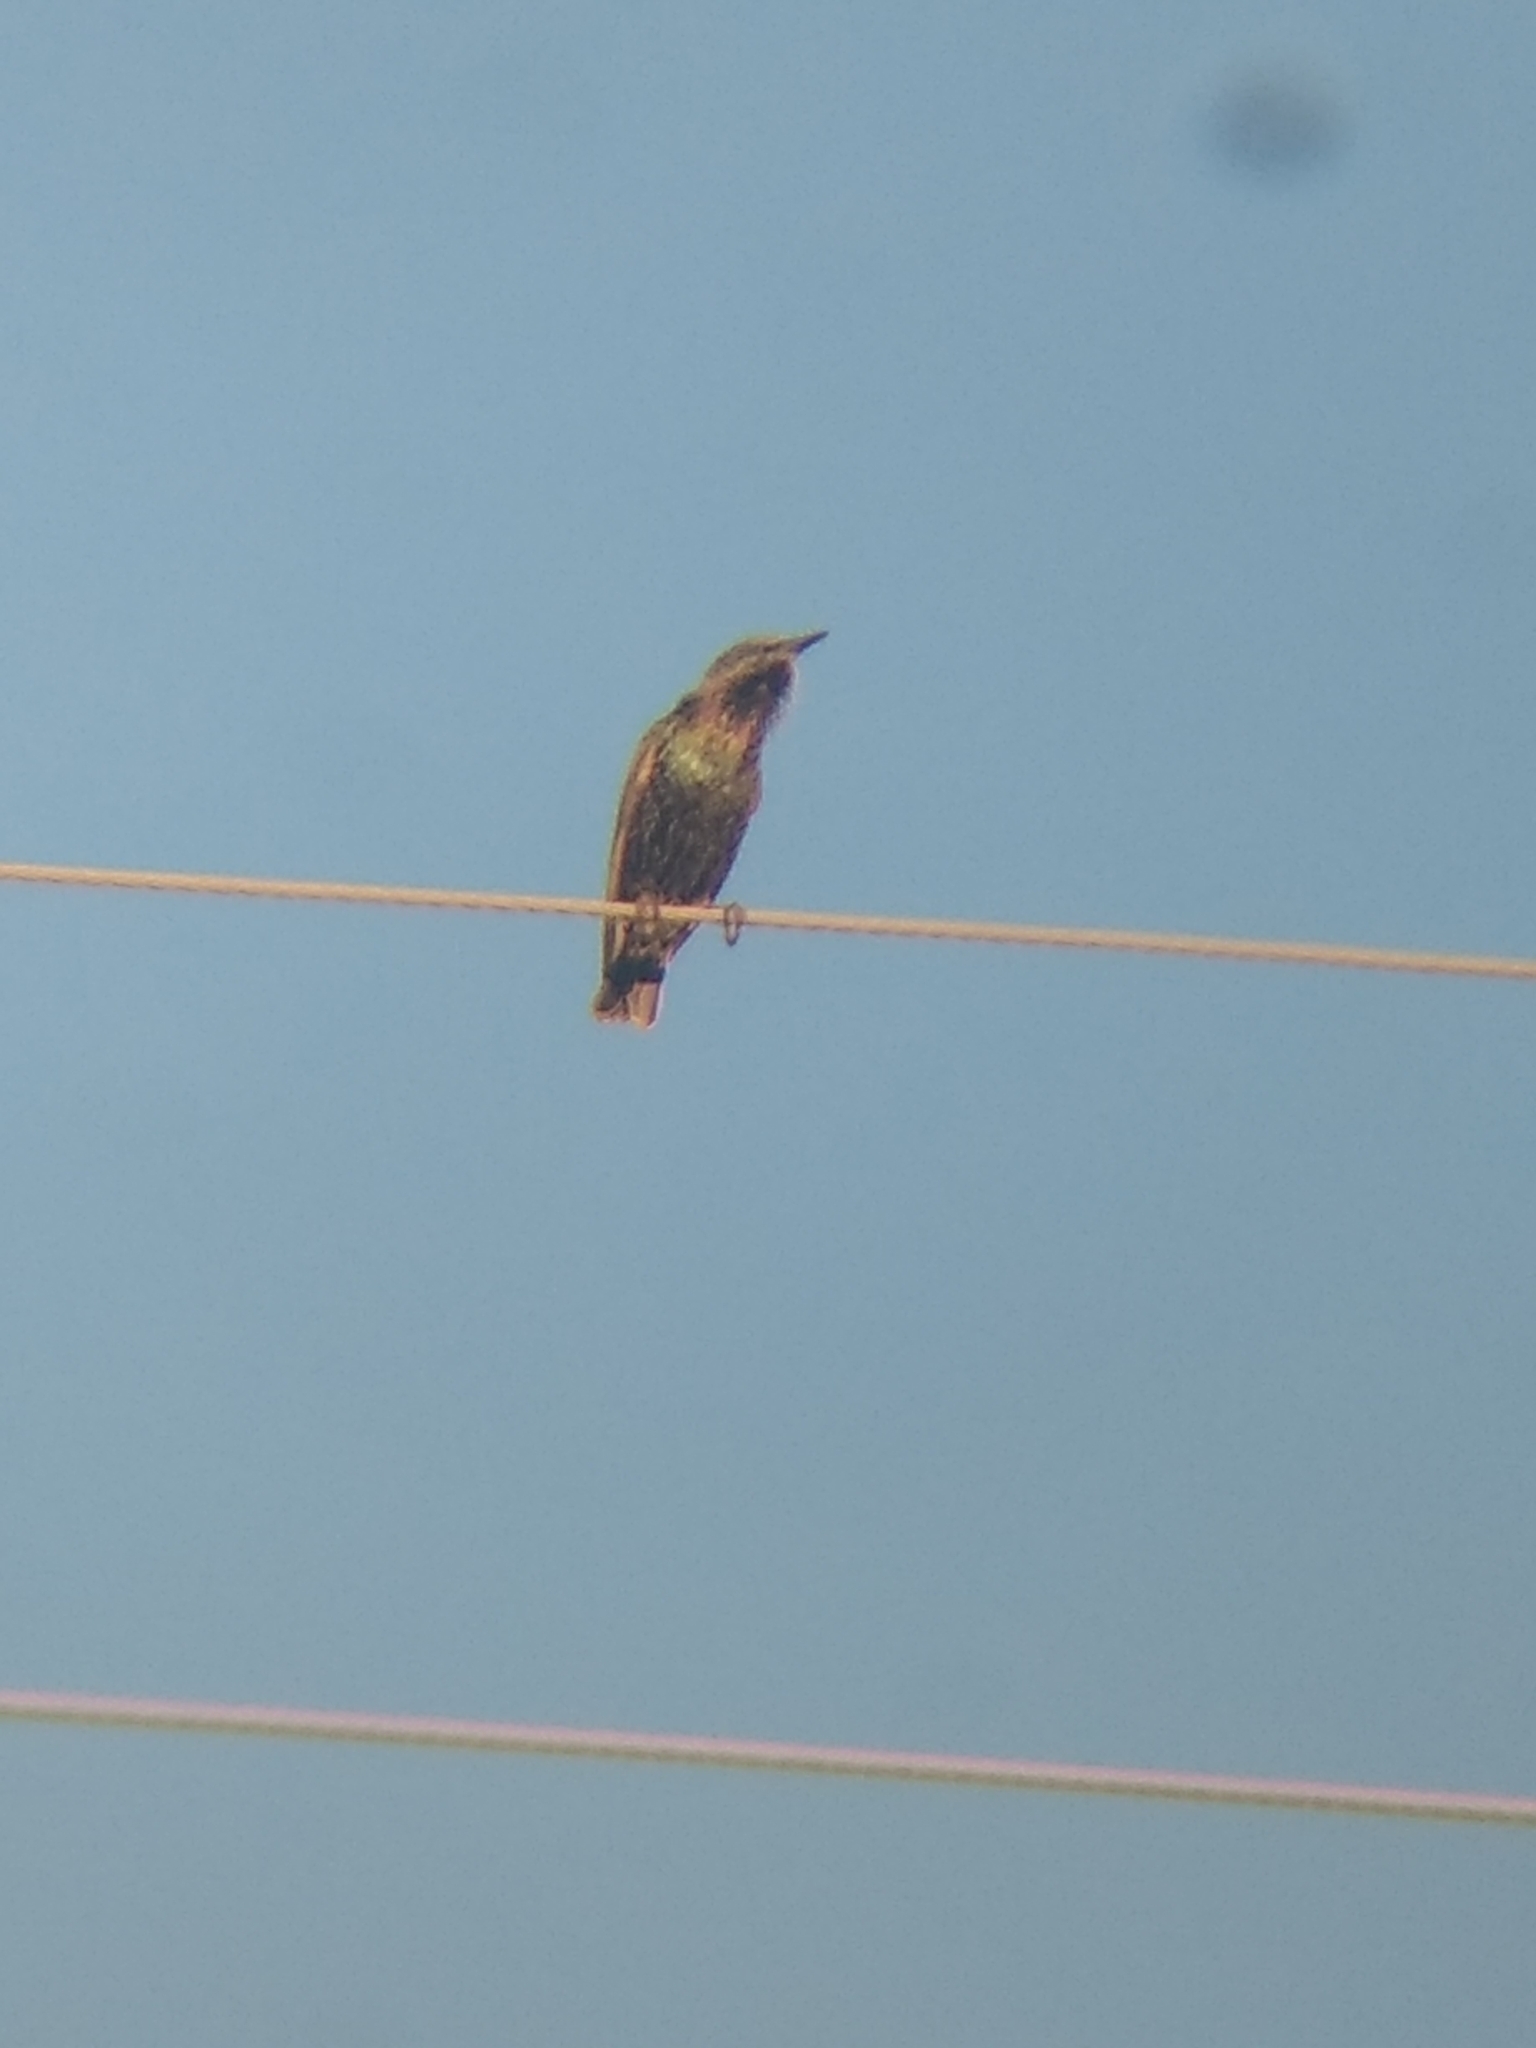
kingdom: Animalia
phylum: Chordata
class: Aves
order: Passeriformes
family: Sturnidae
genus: Sturnus
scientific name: Sturnus vulgaris
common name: Common starling
